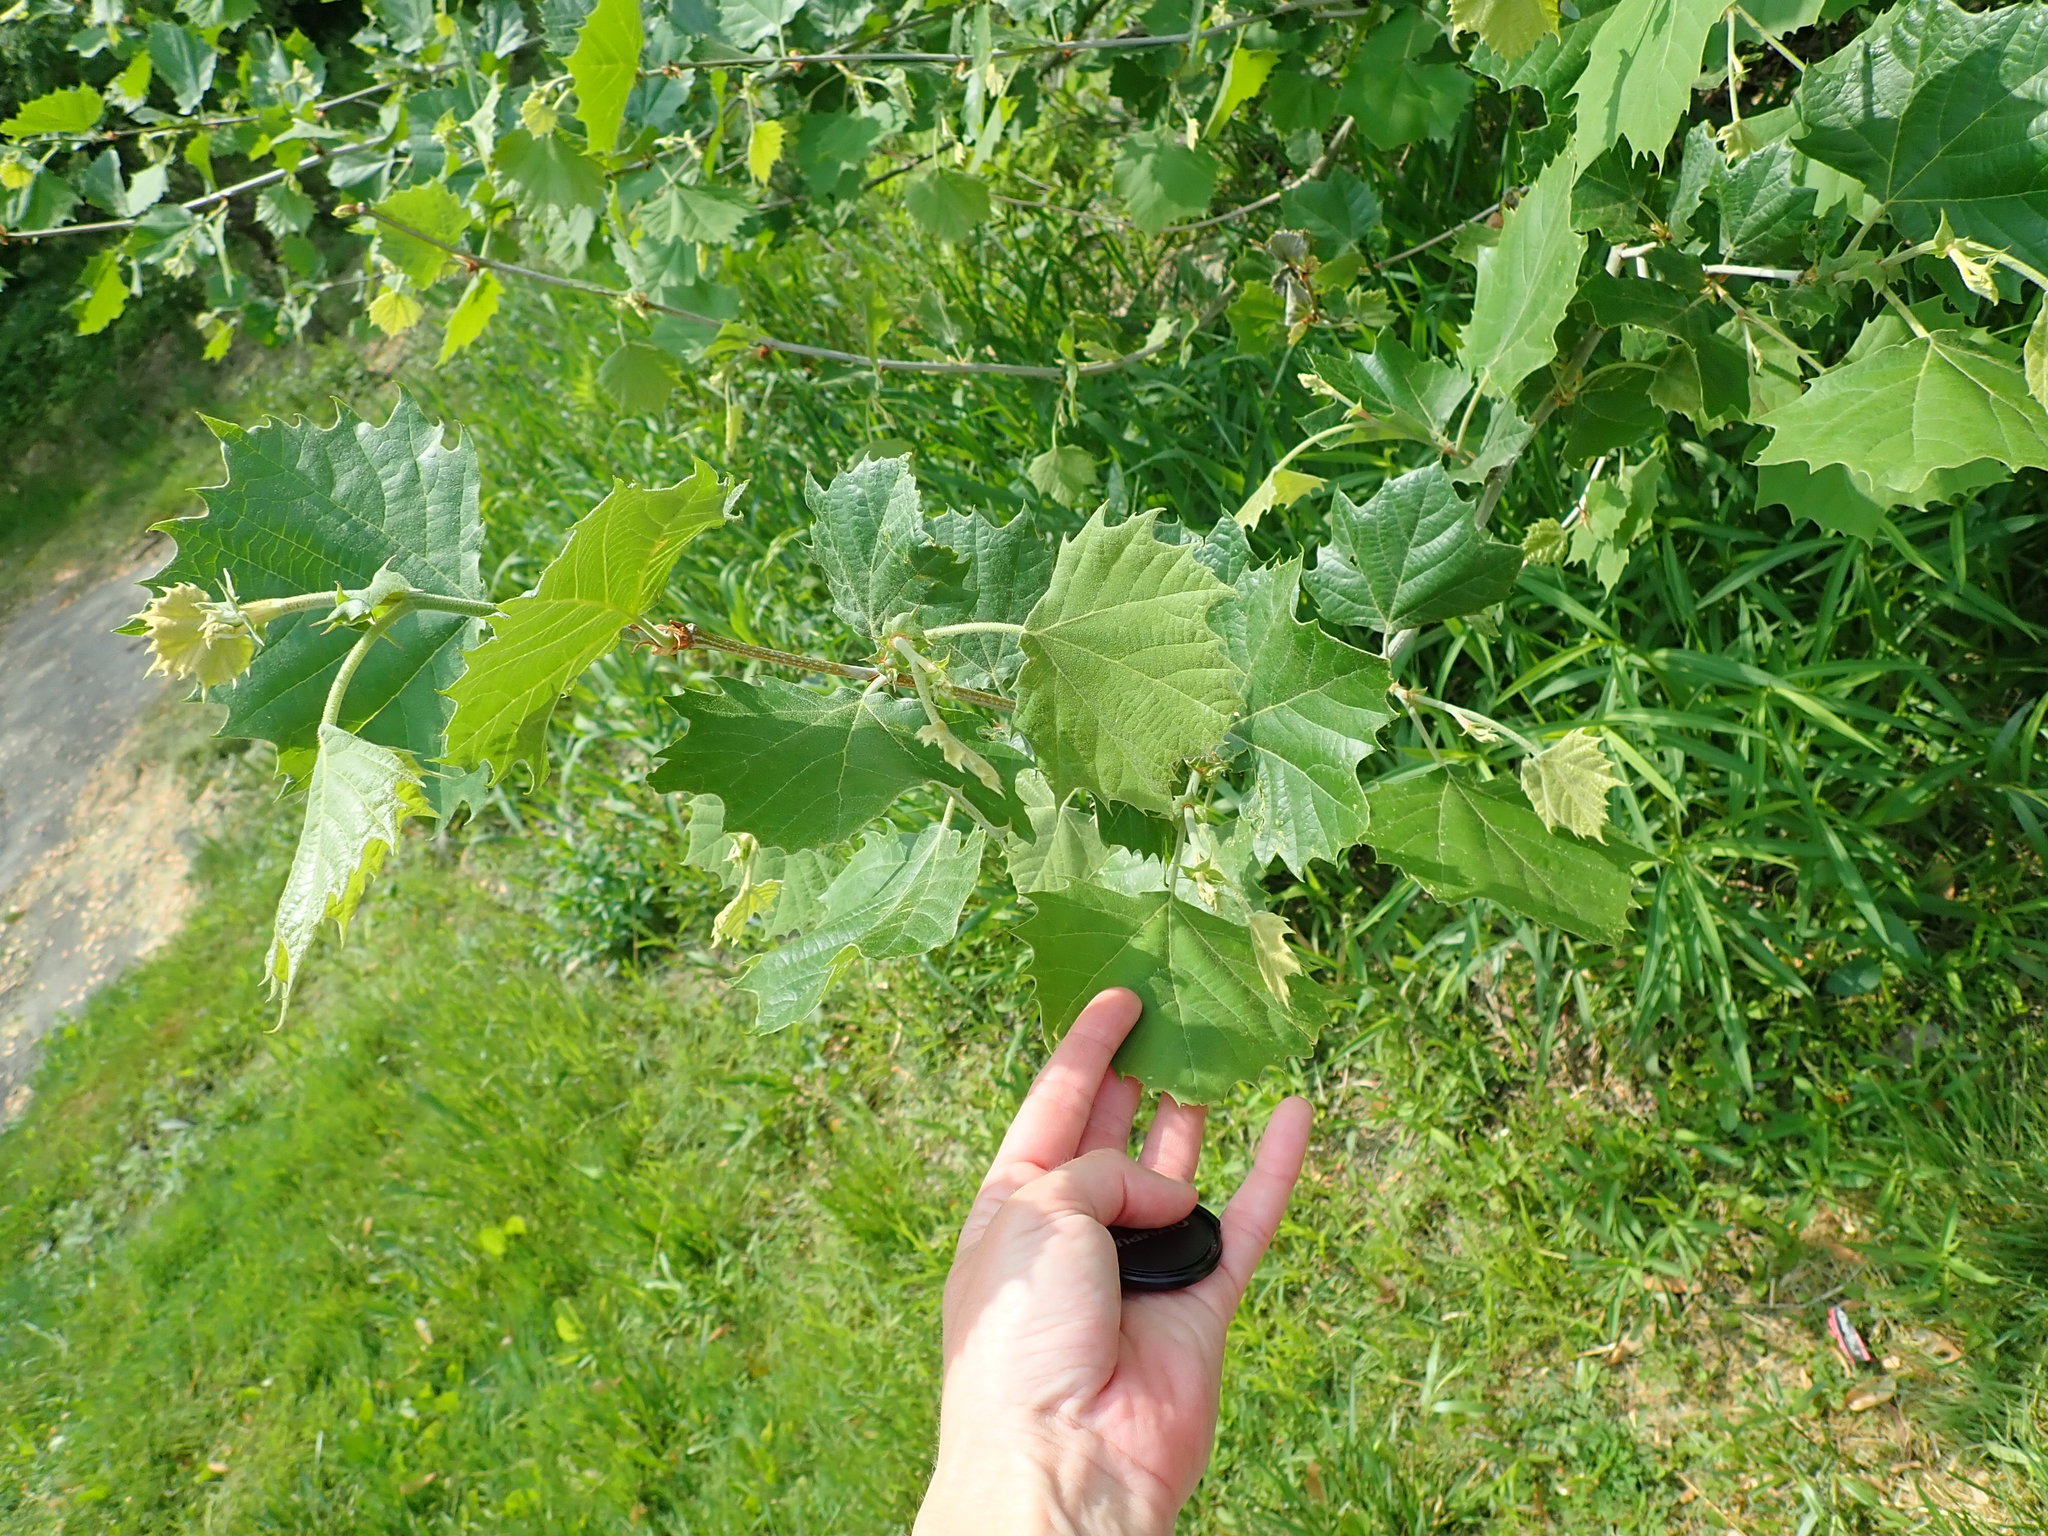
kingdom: Plantae
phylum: Tracheophyta
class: Magnoliopsida
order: Proteales
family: Platanaceae
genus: Platanus
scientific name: Platanus occidentalis
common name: American sycamore
